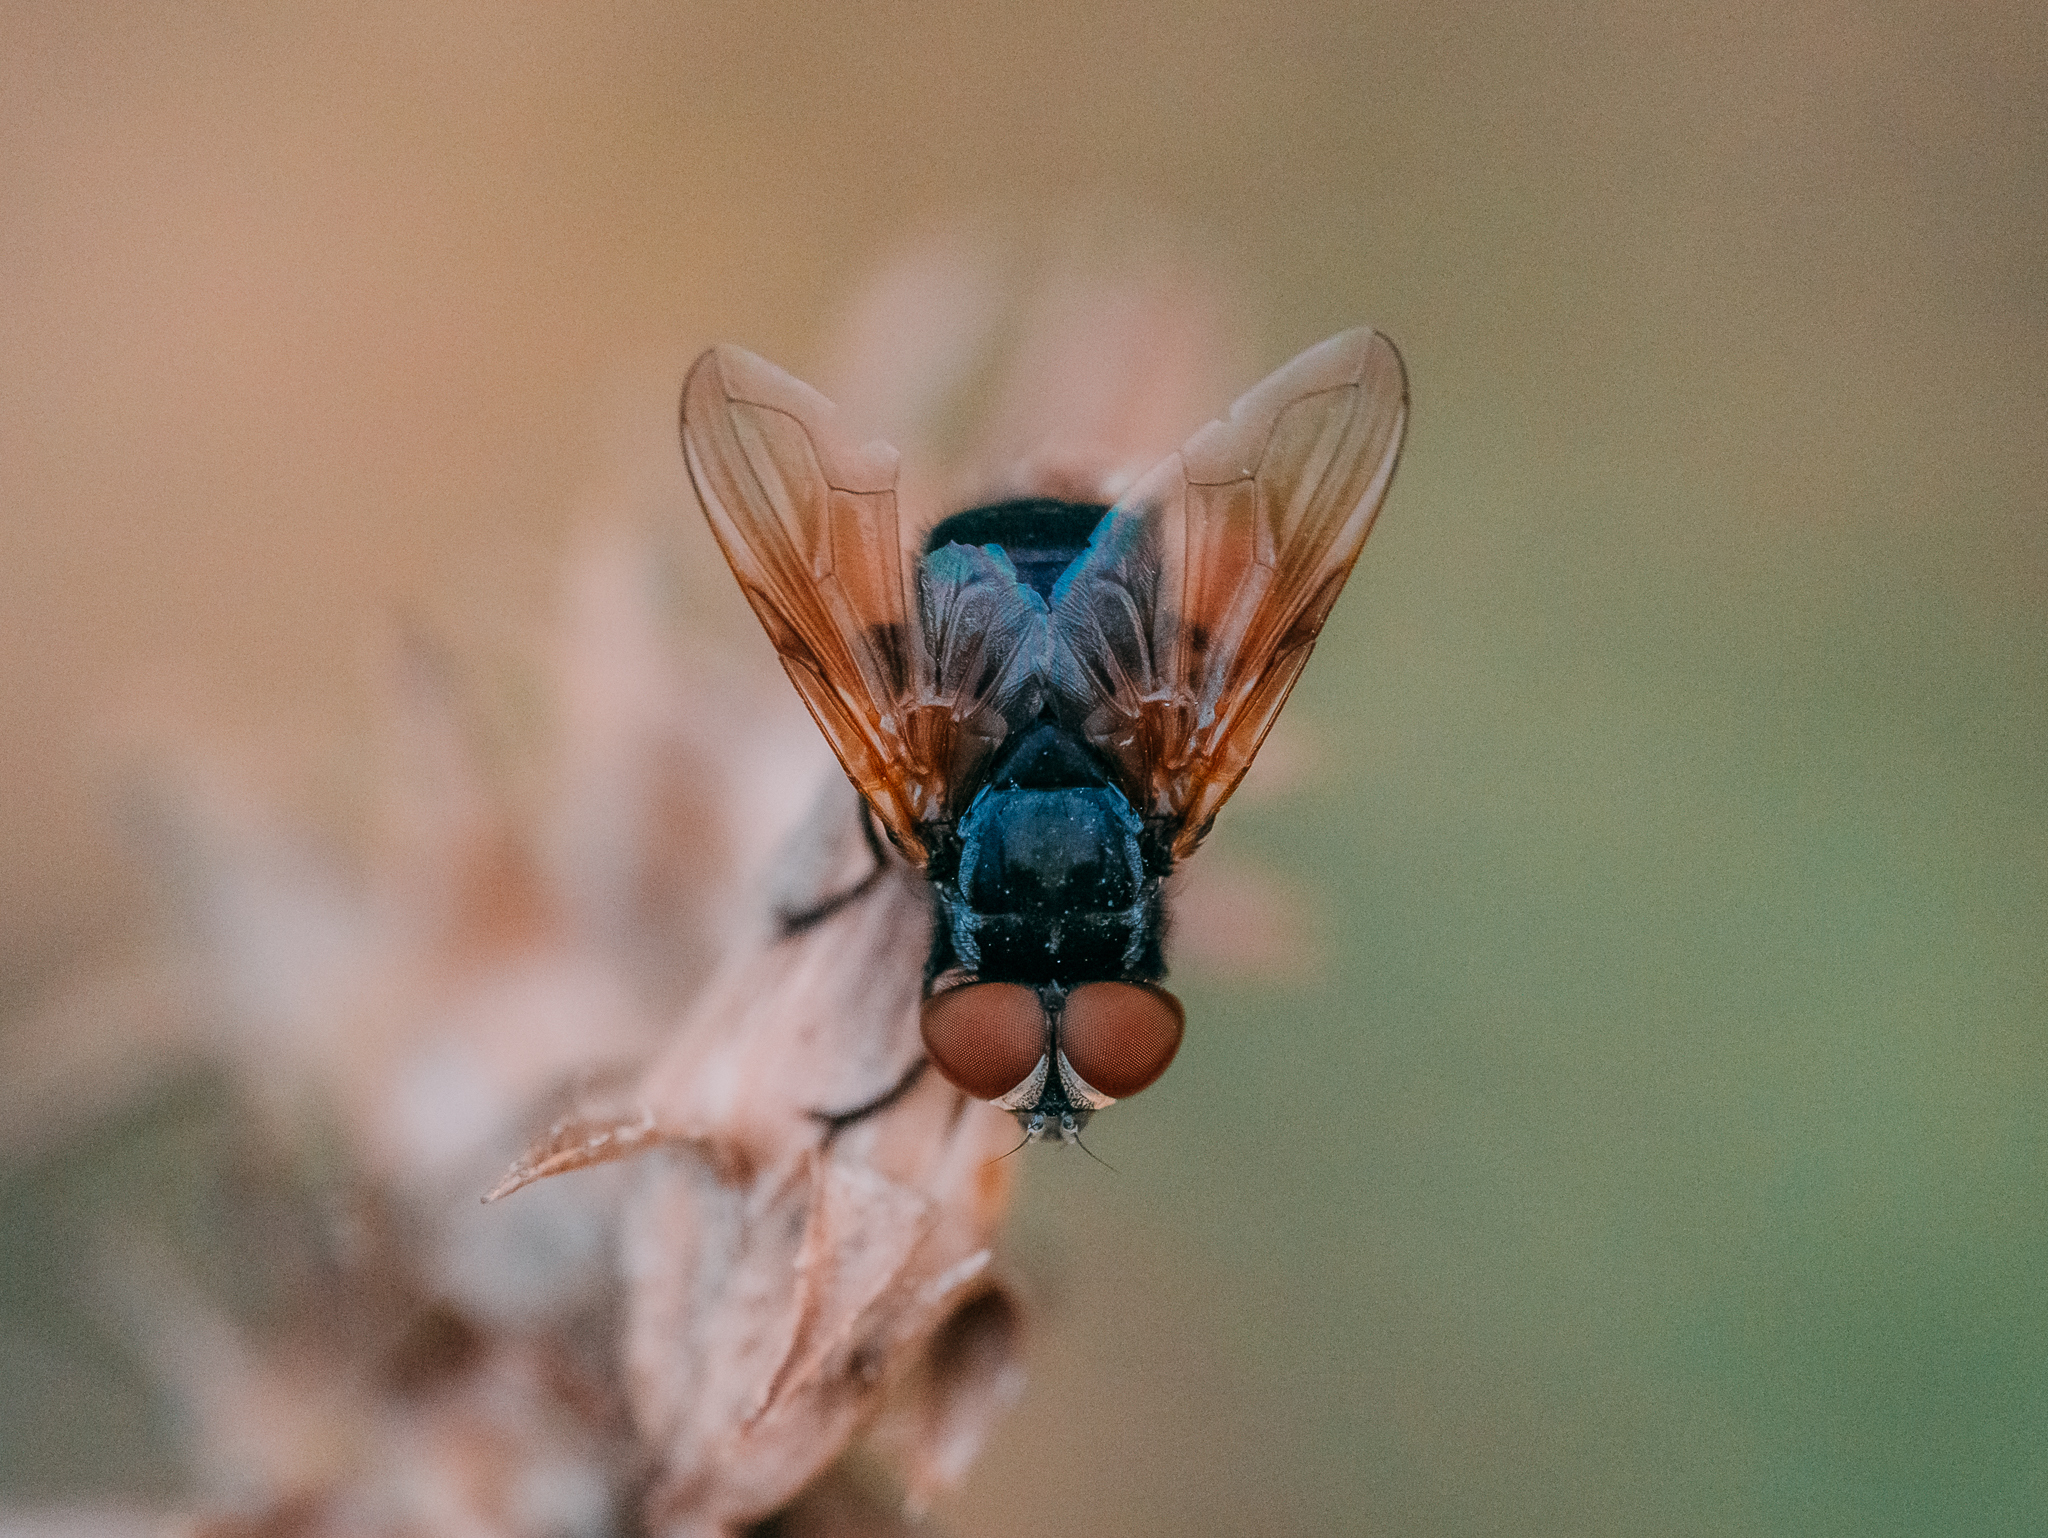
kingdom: Animalia
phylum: Arthropoda
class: Insecta
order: Diptera
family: Tachinidae
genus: Phasia
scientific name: Phasia aurulans
